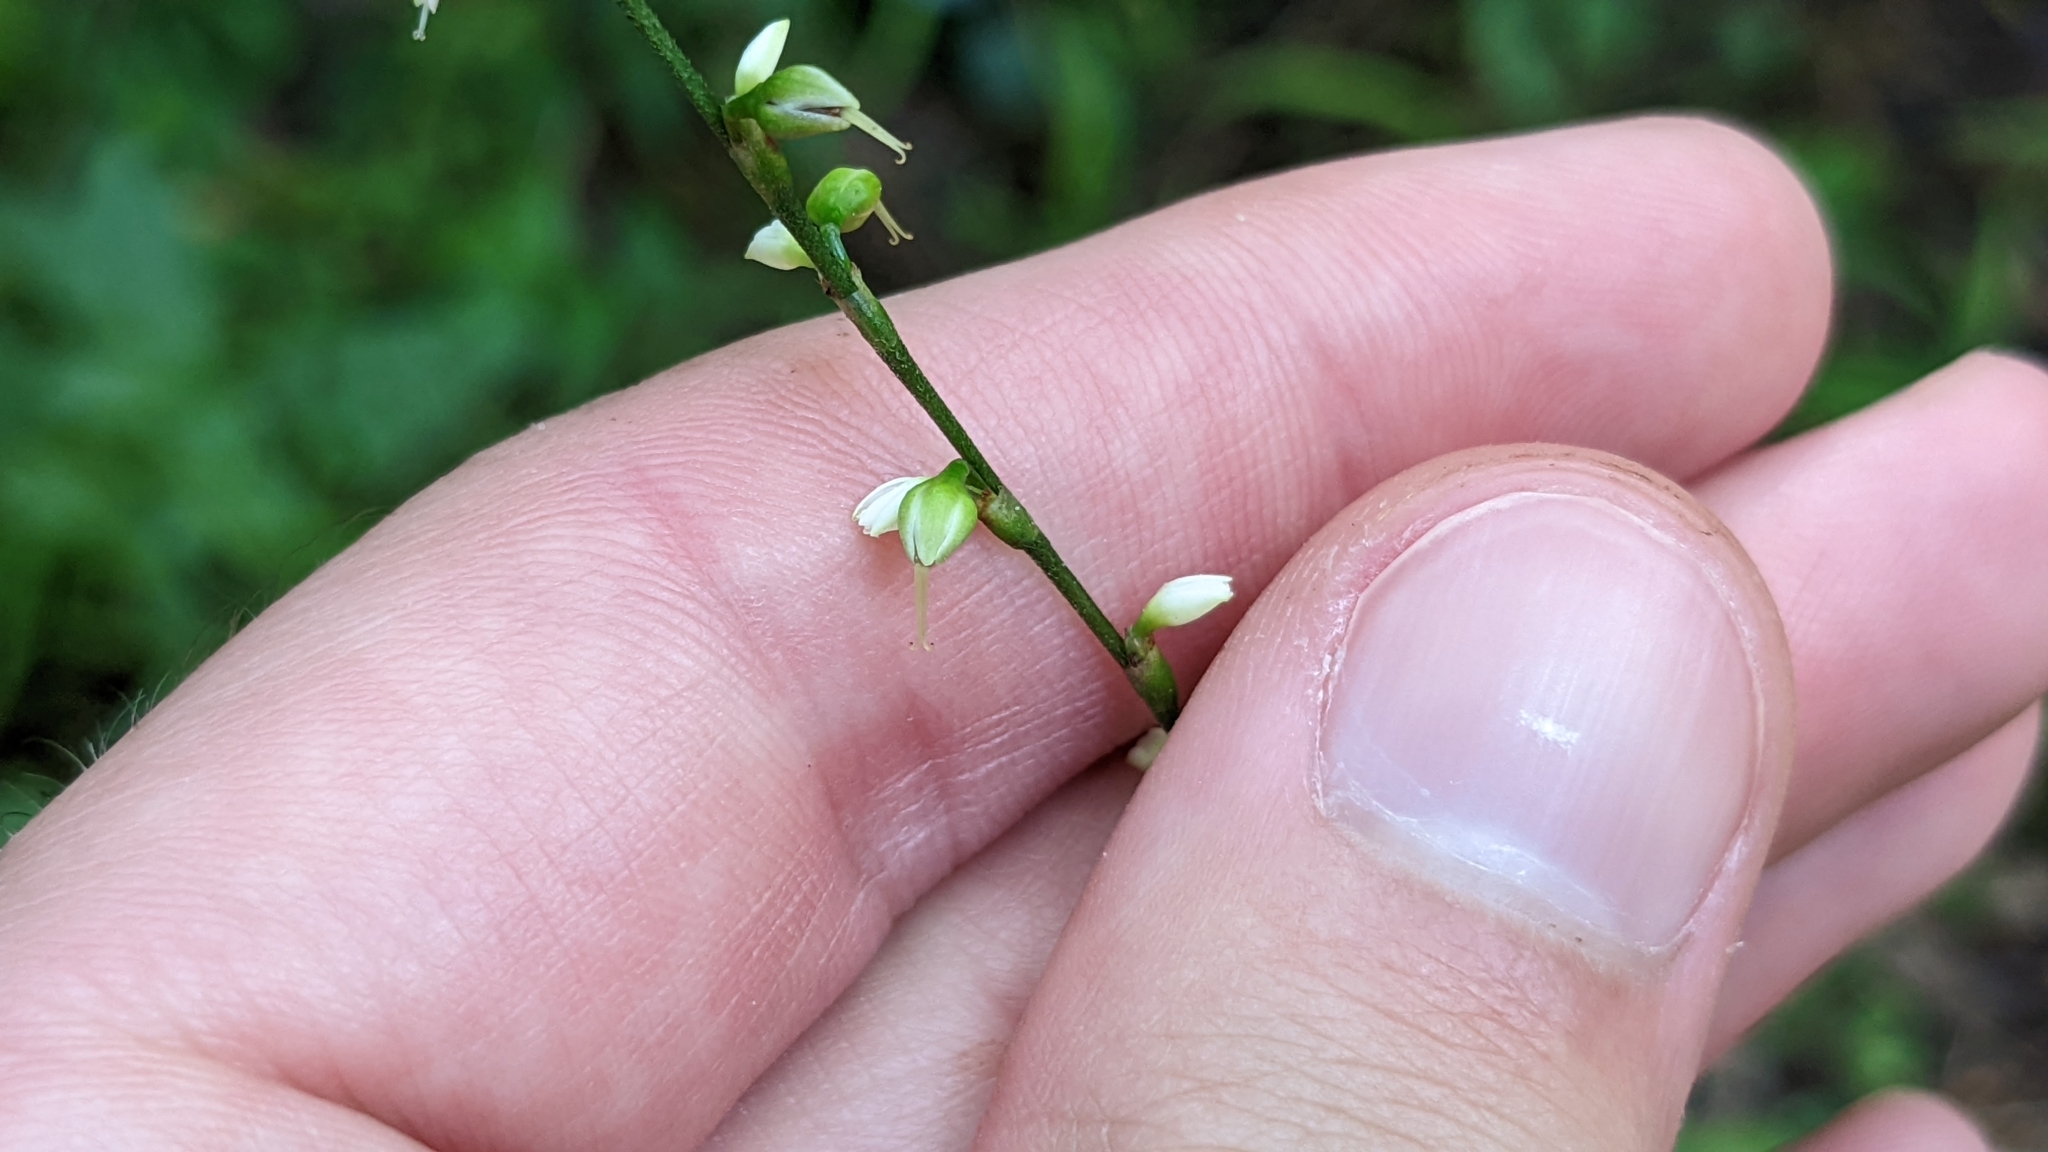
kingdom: Plantae
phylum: Tracheophyta
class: Magnoliopsida
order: Caryophyllales
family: Polygonaceae
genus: Persicaria
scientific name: Persicaria virginiana
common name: Jumpseed
